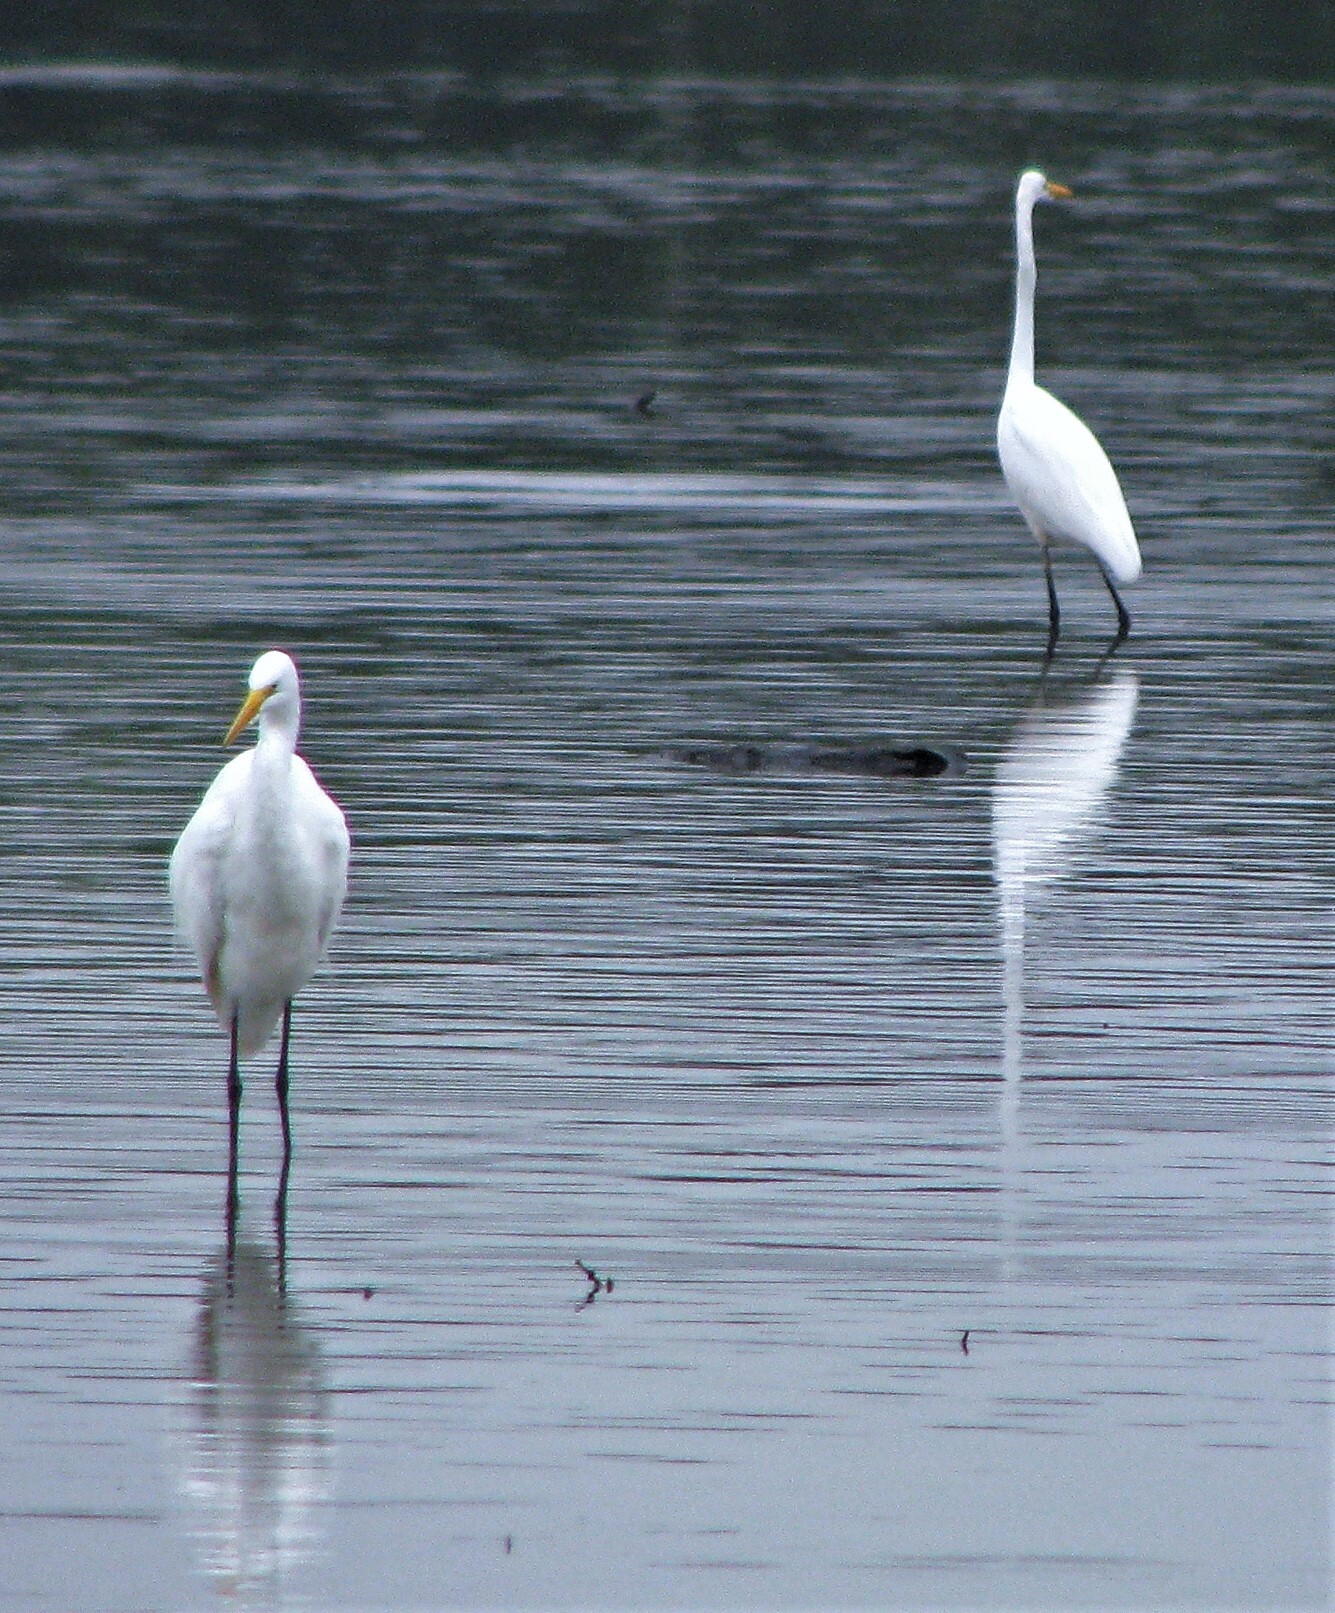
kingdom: Animalia
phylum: Chordata
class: Aves
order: Pelecaniformes
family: Ardeidae
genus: Ardea
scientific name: Ardea alba
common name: Great egret
